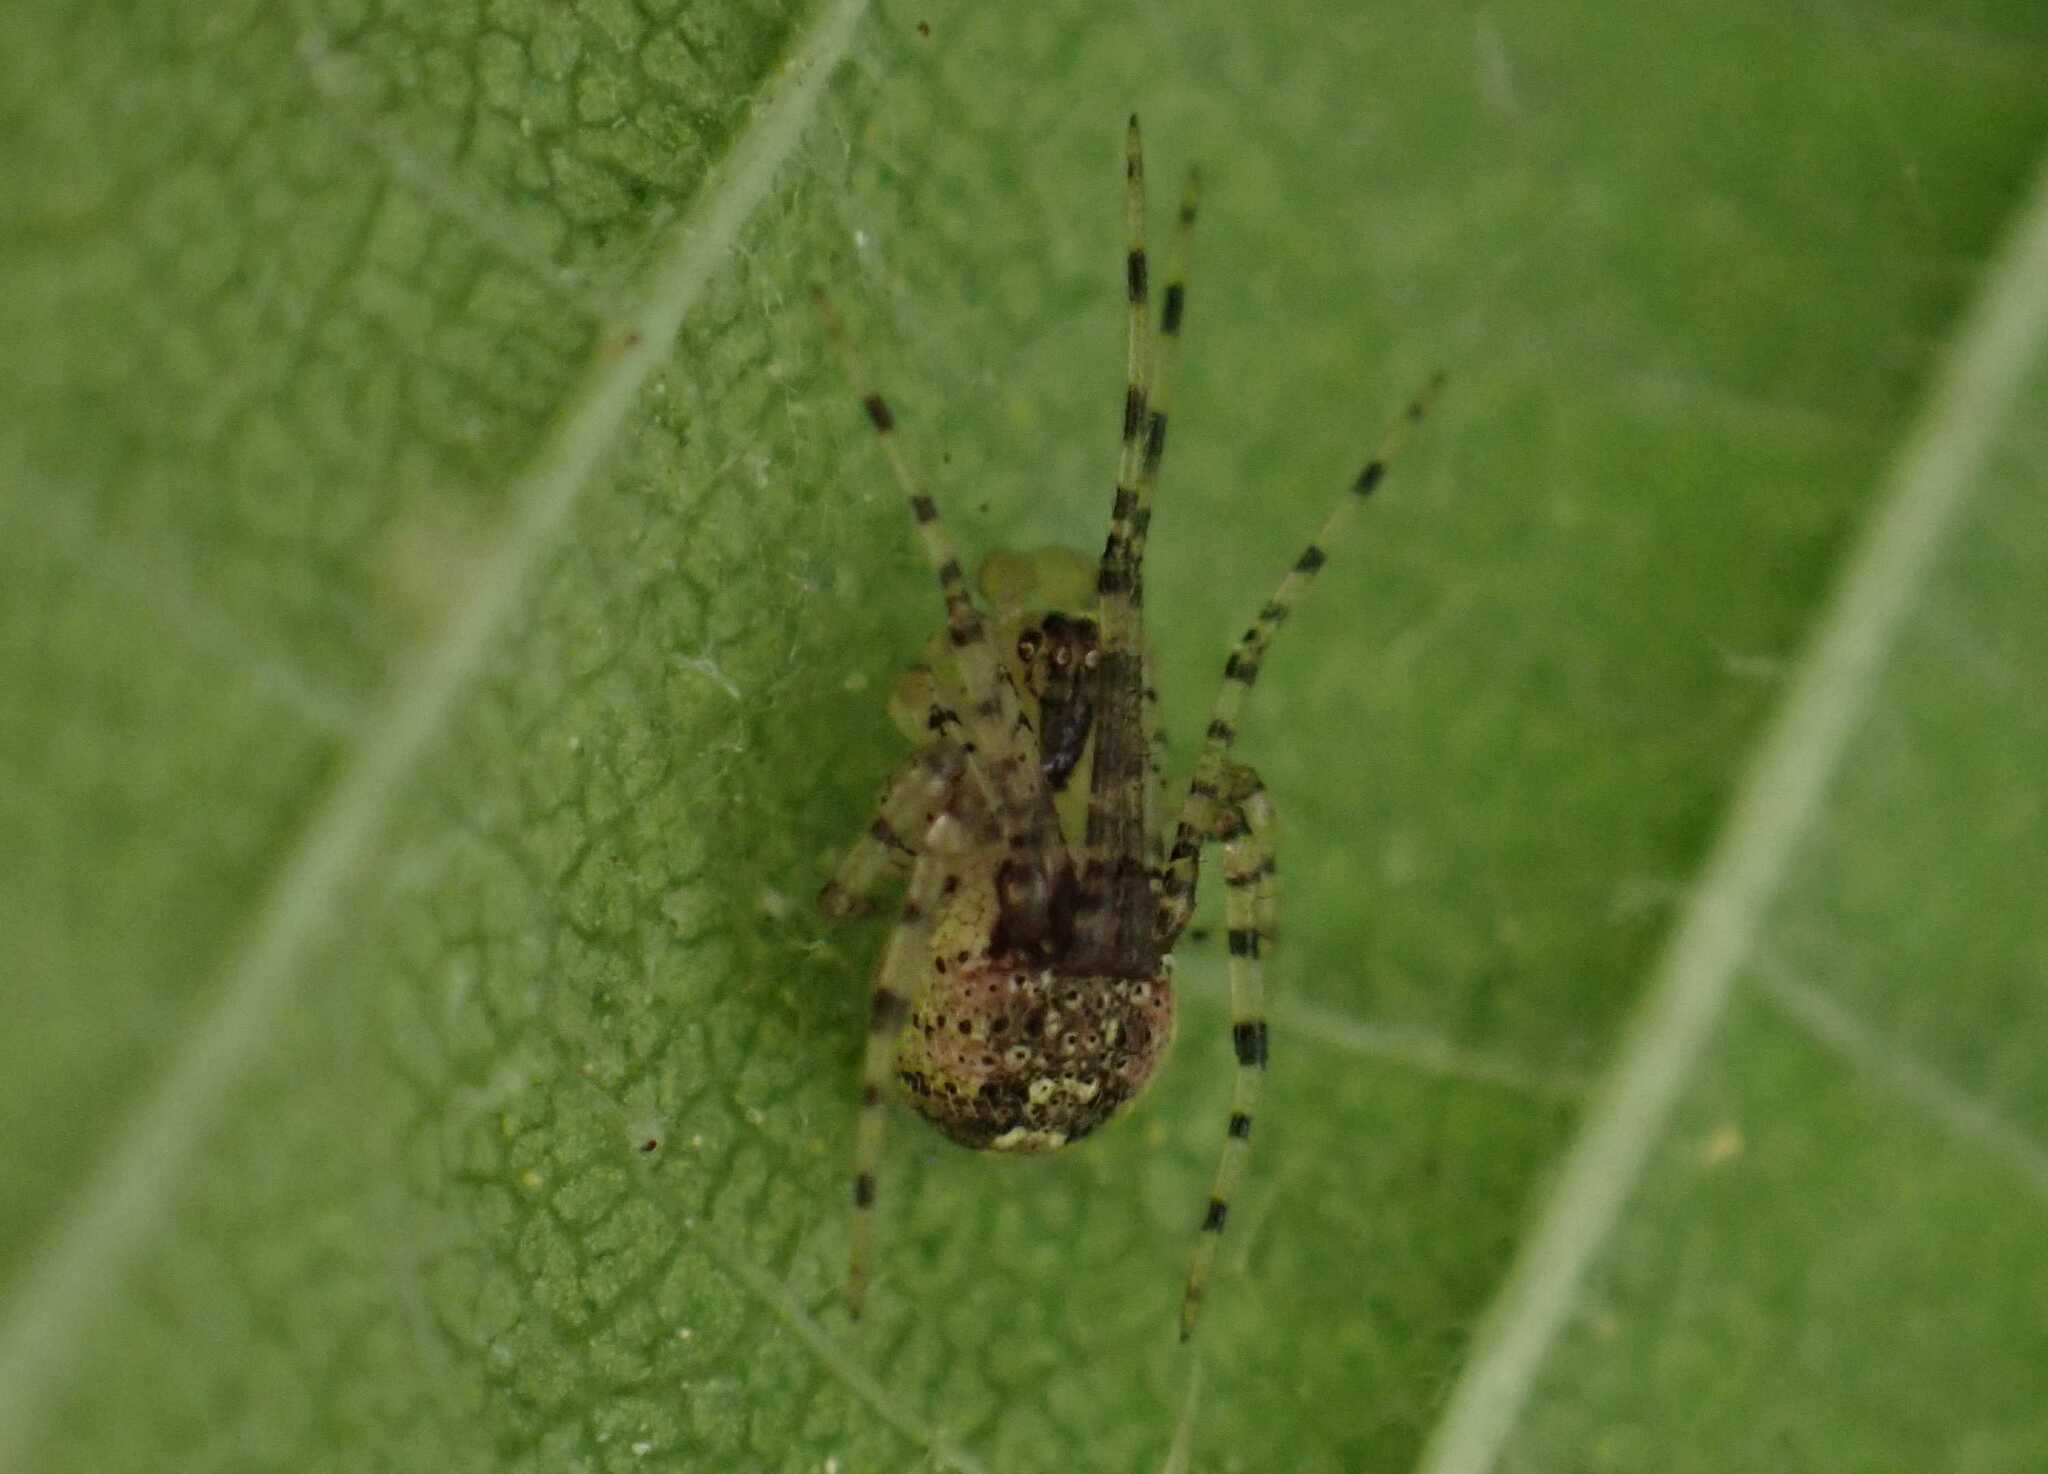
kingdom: Animalia
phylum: Arthropoda
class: Arachnida
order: Araneae
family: Theridiidae
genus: Platnickina
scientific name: Platnickina tincta
